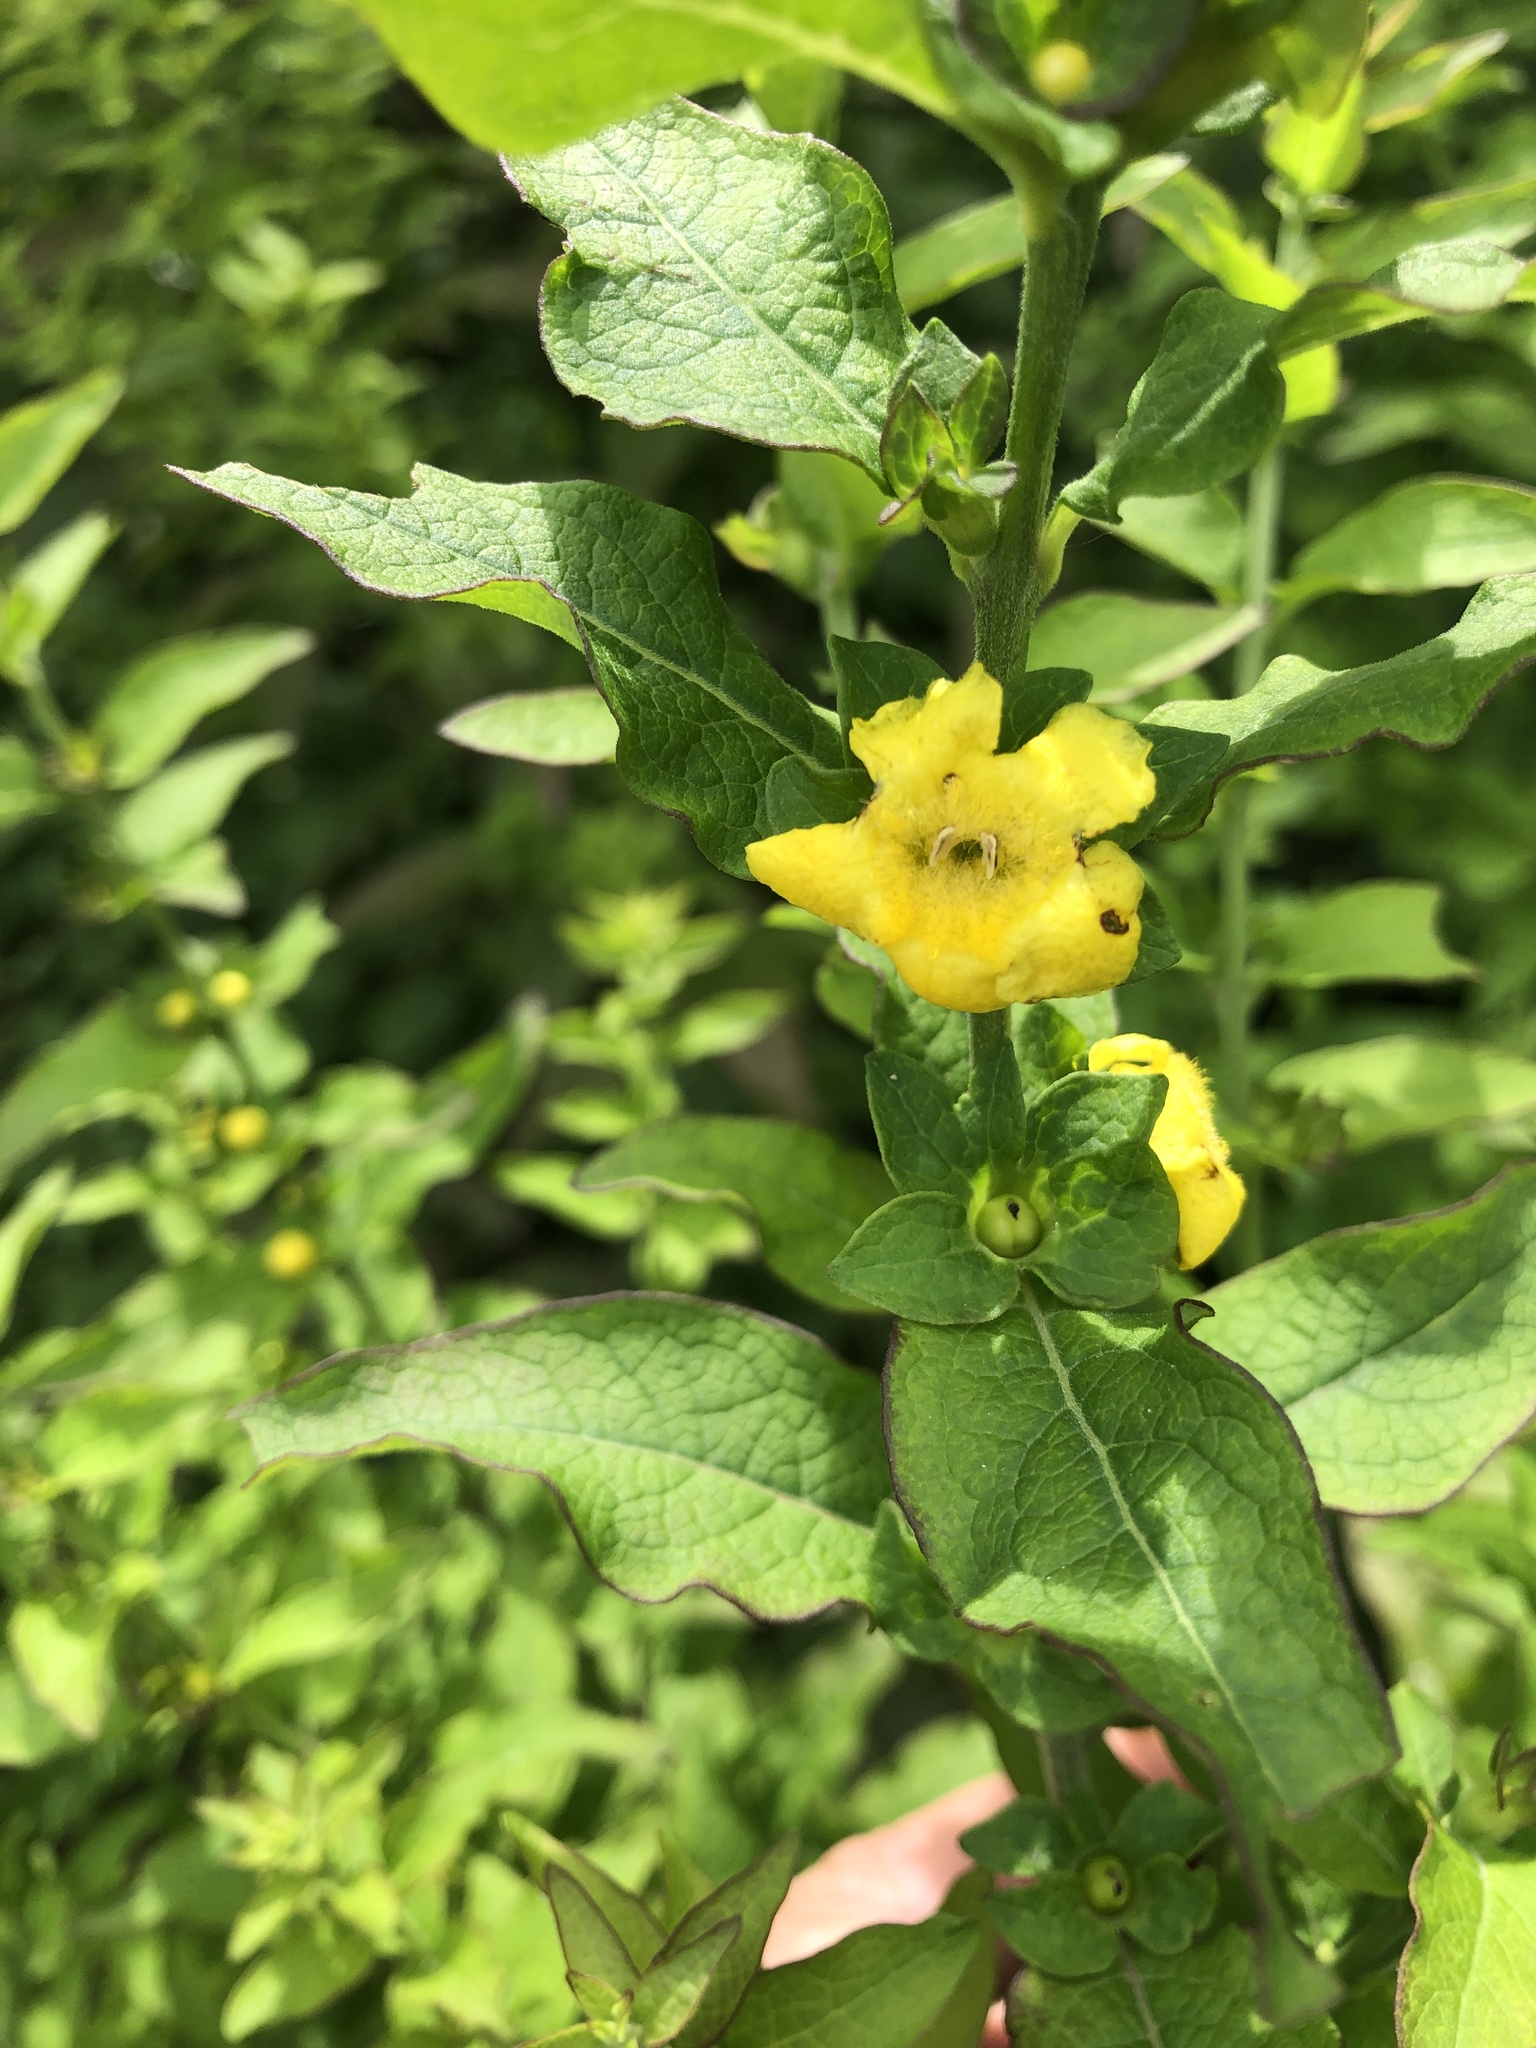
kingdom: Plantae
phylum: Tracheophyta
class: Magnoliopsida
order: Lamiales
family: Orobanchaceae
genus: Dasistoma
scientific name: Dasistoma macrophyllum
